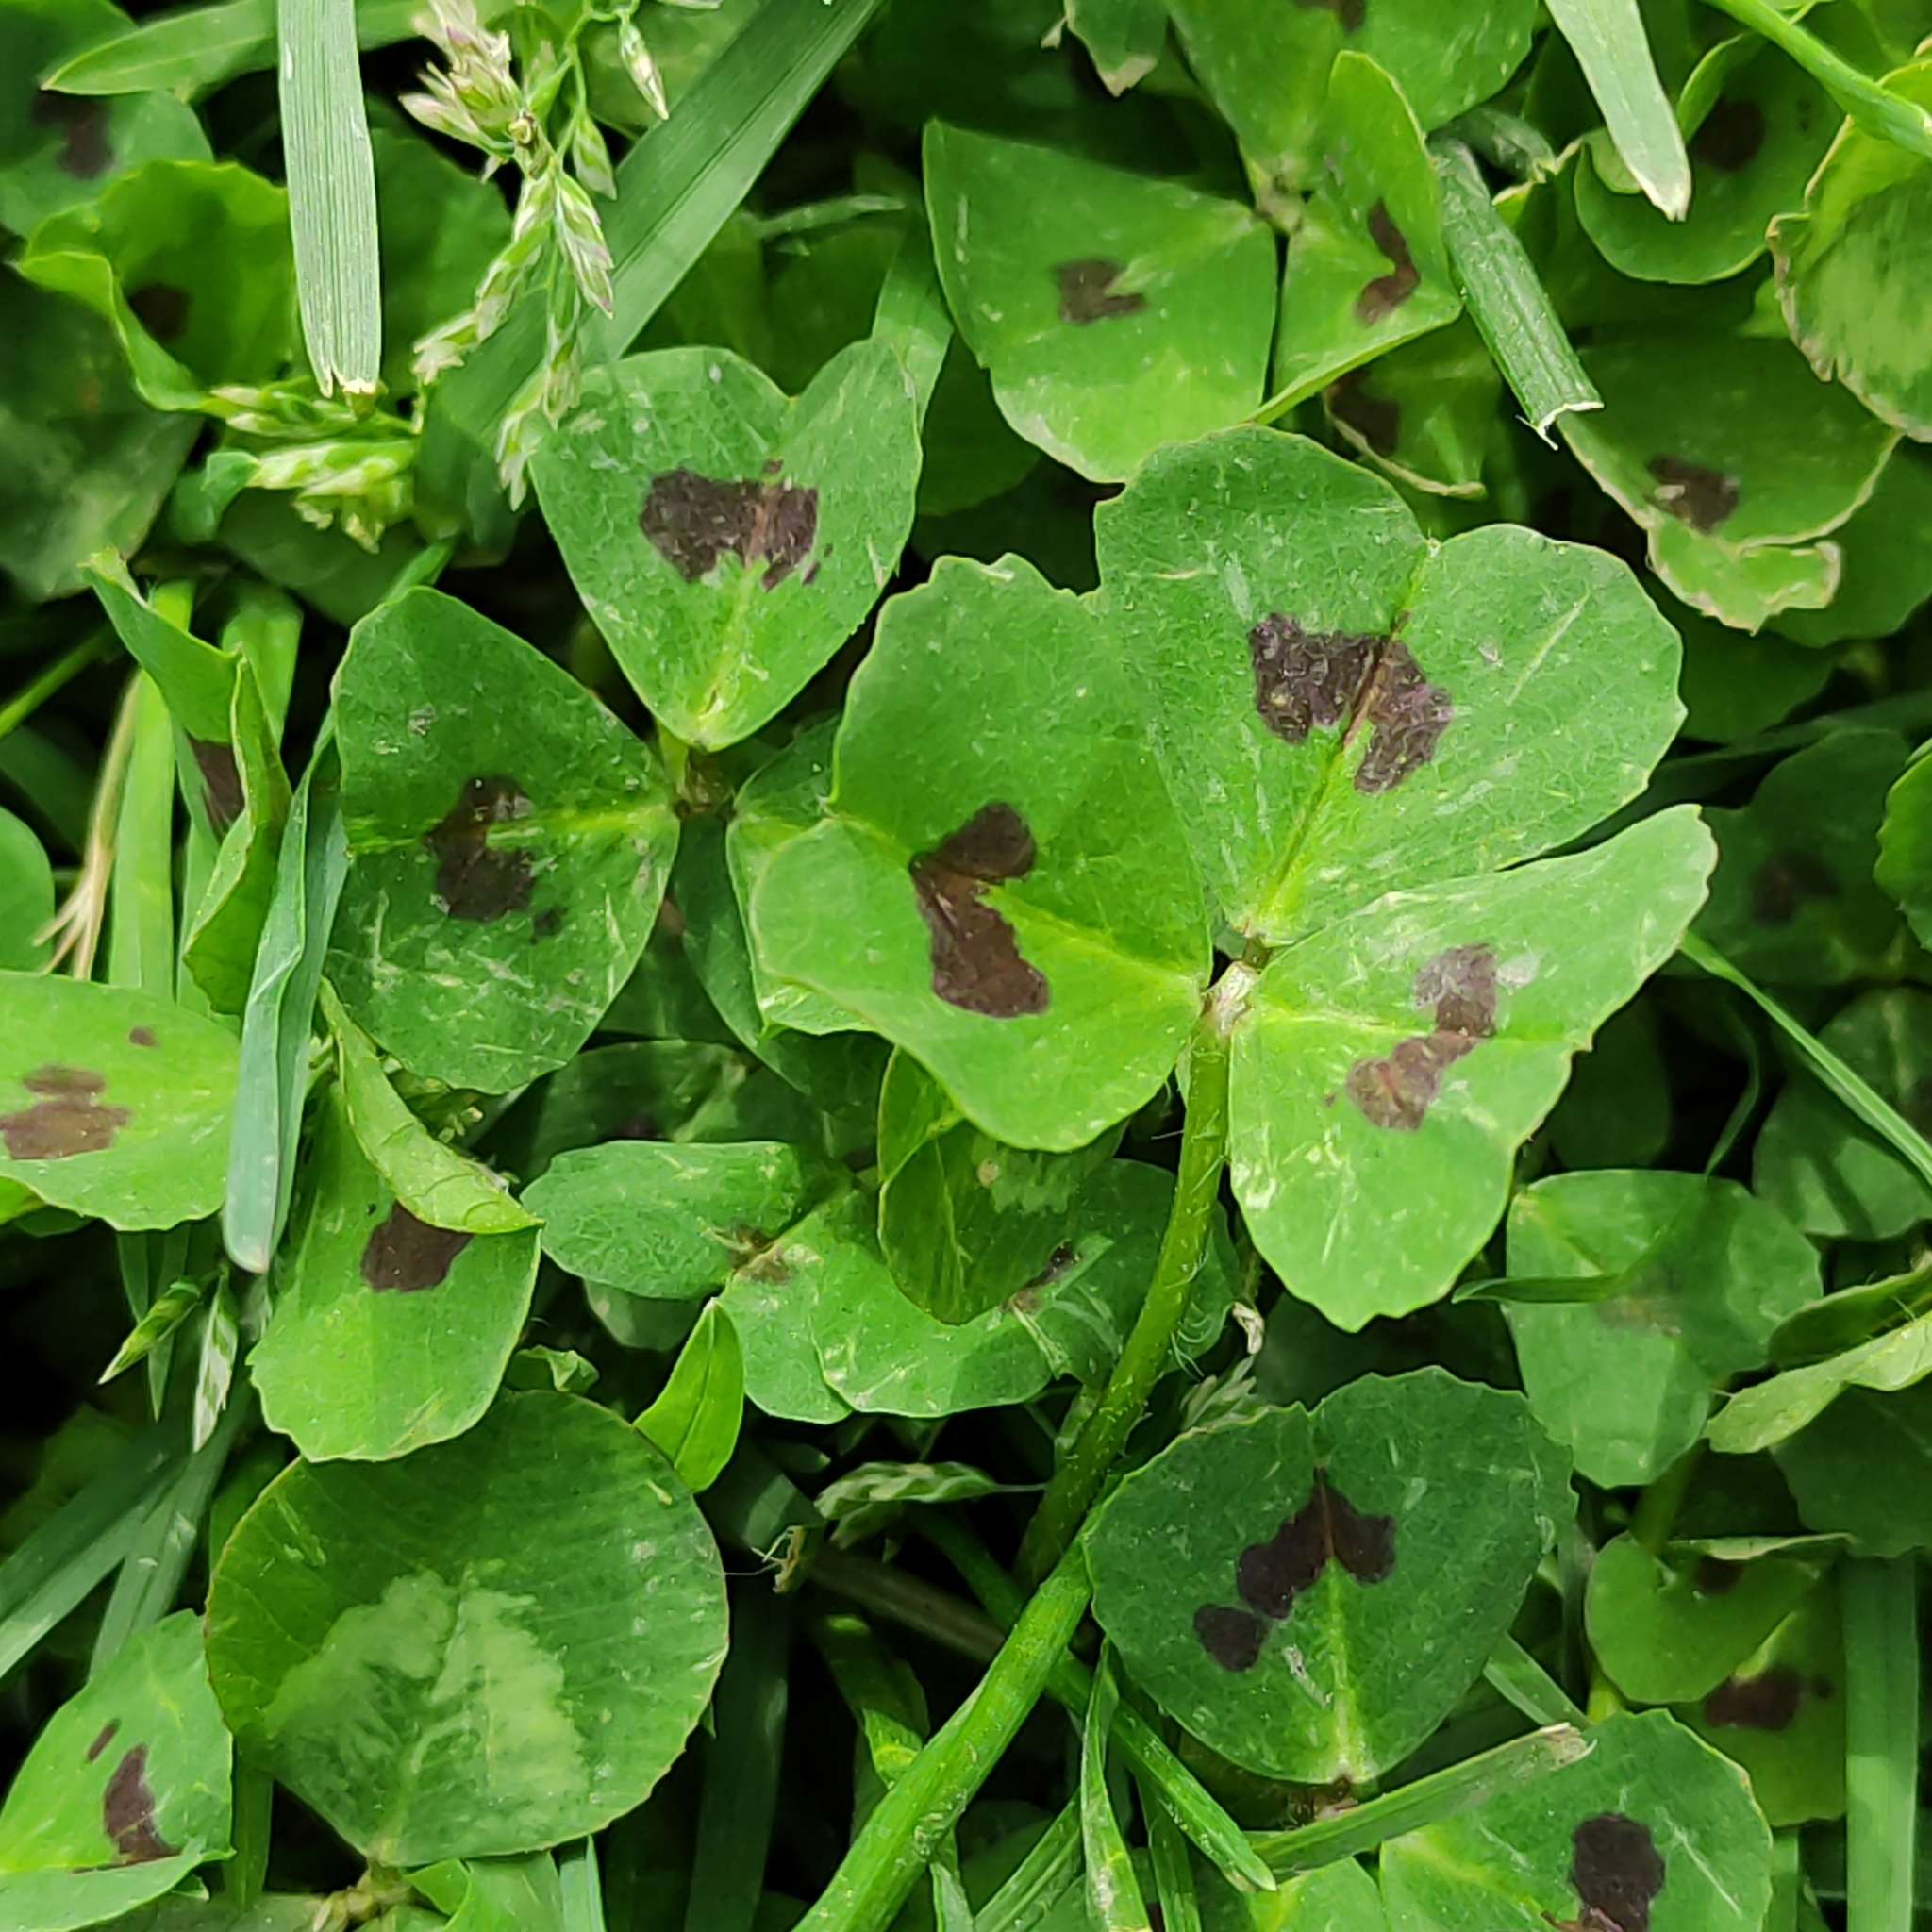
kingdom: Plantae
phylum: Tracheophyta
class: Magnoliopsida
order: Fabales
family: Fabaceae
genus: Medicago
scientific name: Medicago arabica
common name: Spotted medick
